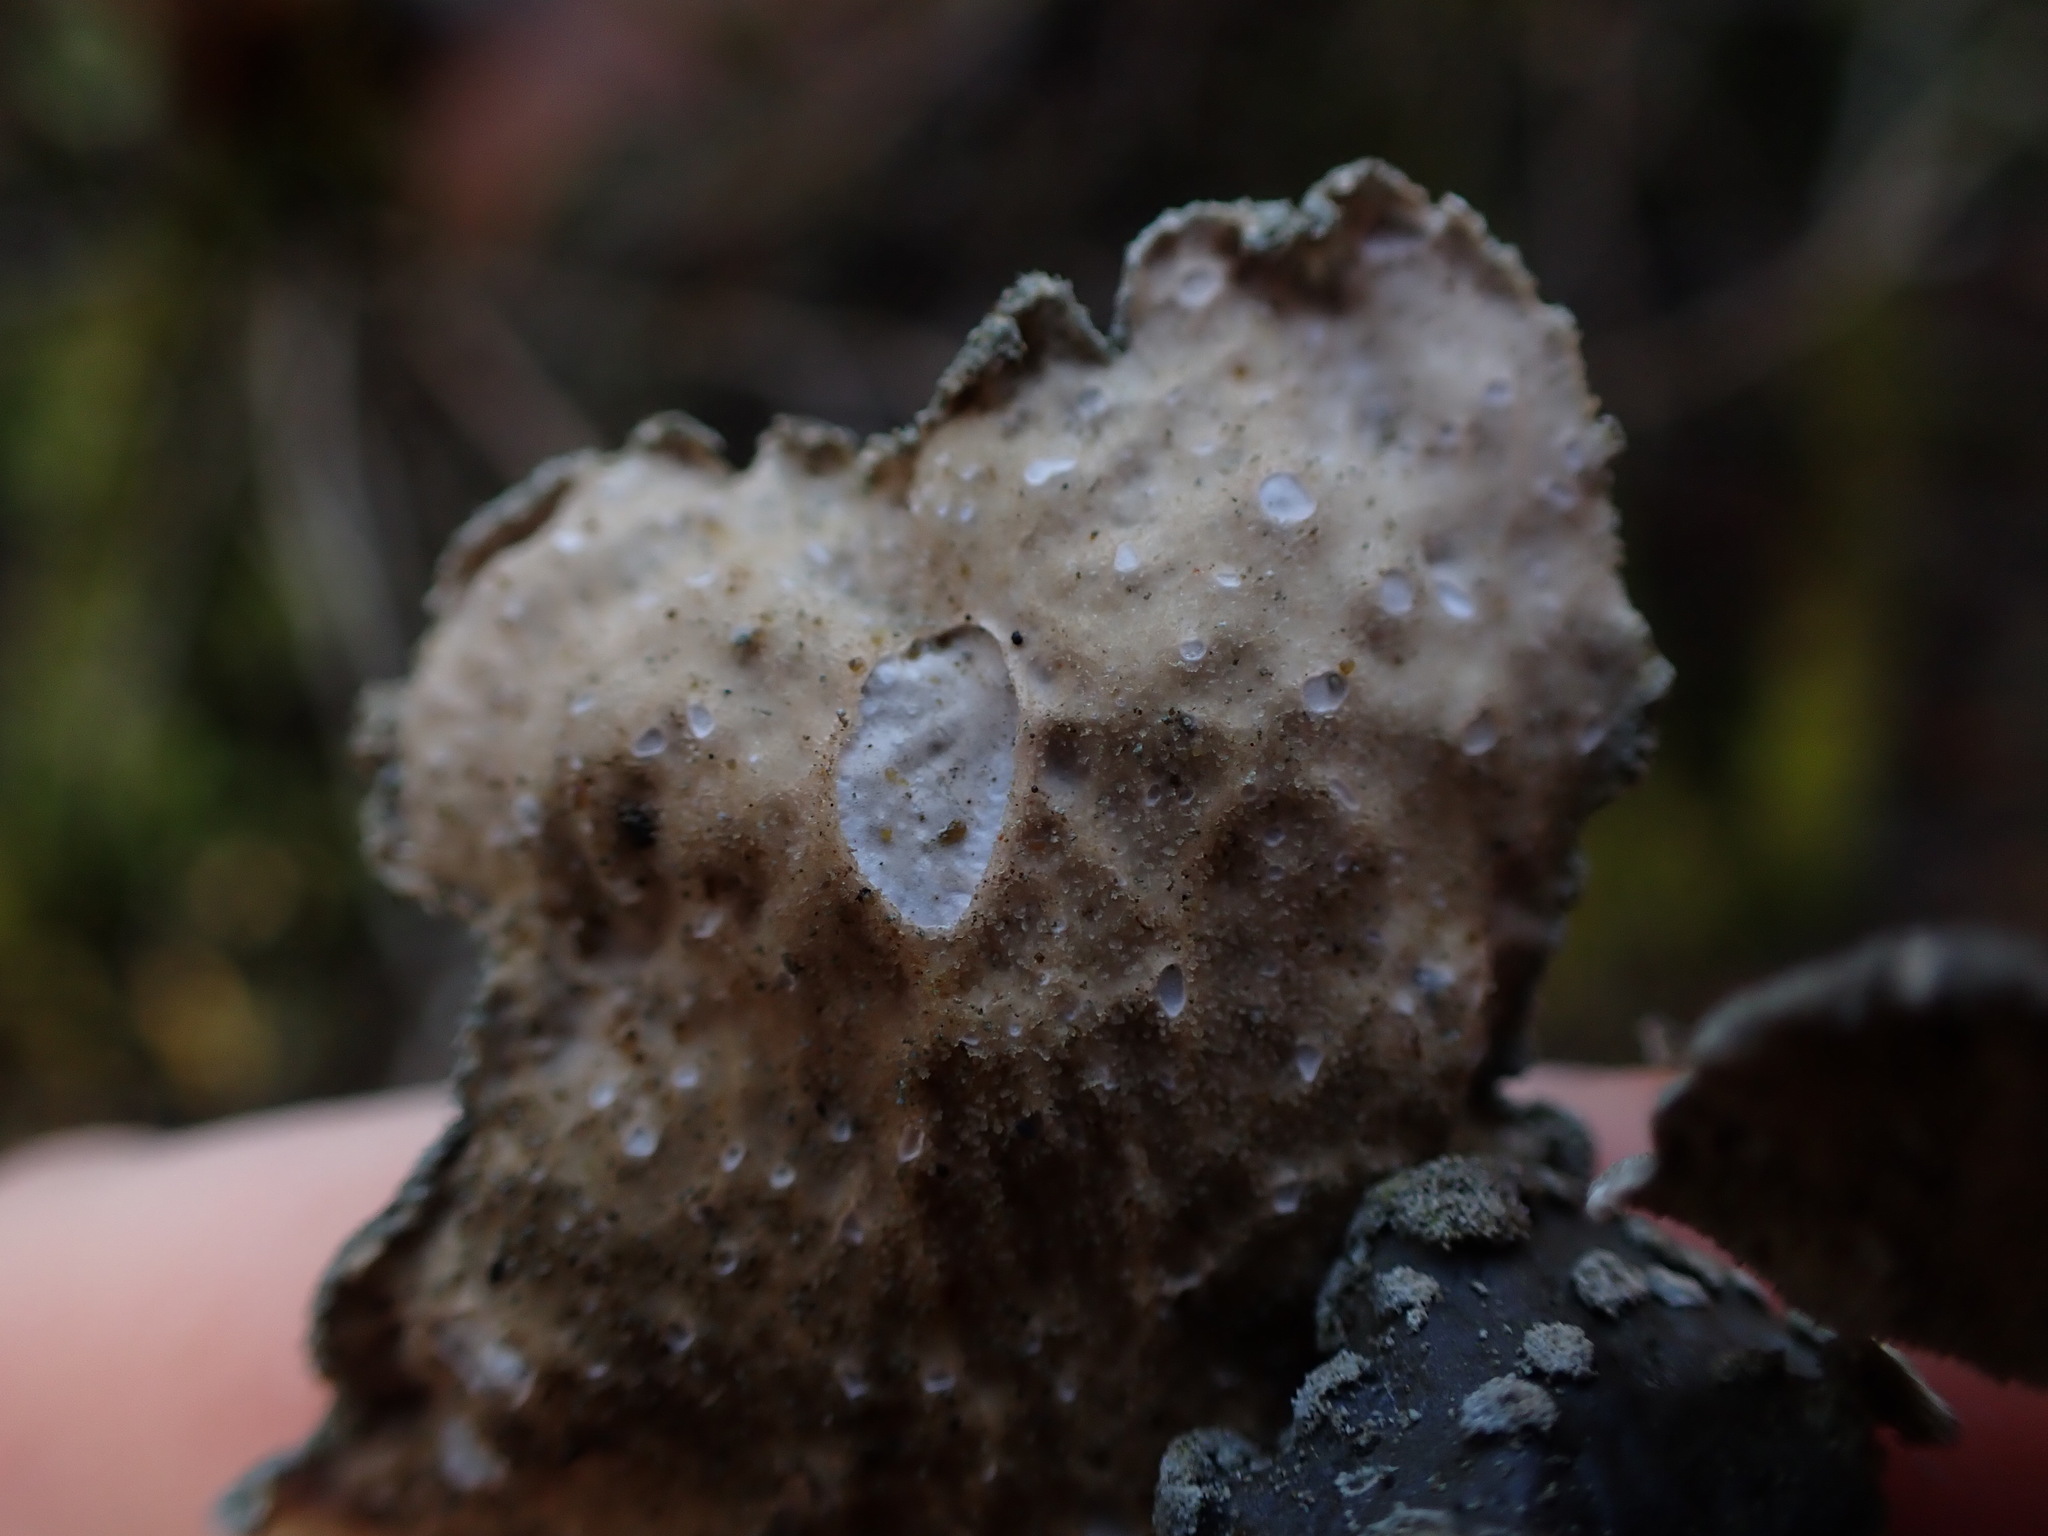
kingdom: Fungi
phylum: Ascomycota
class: Lecanoromycetes
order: Peltigerales
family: Lobariaceae
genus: Sticta
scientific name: Sticta limbata
